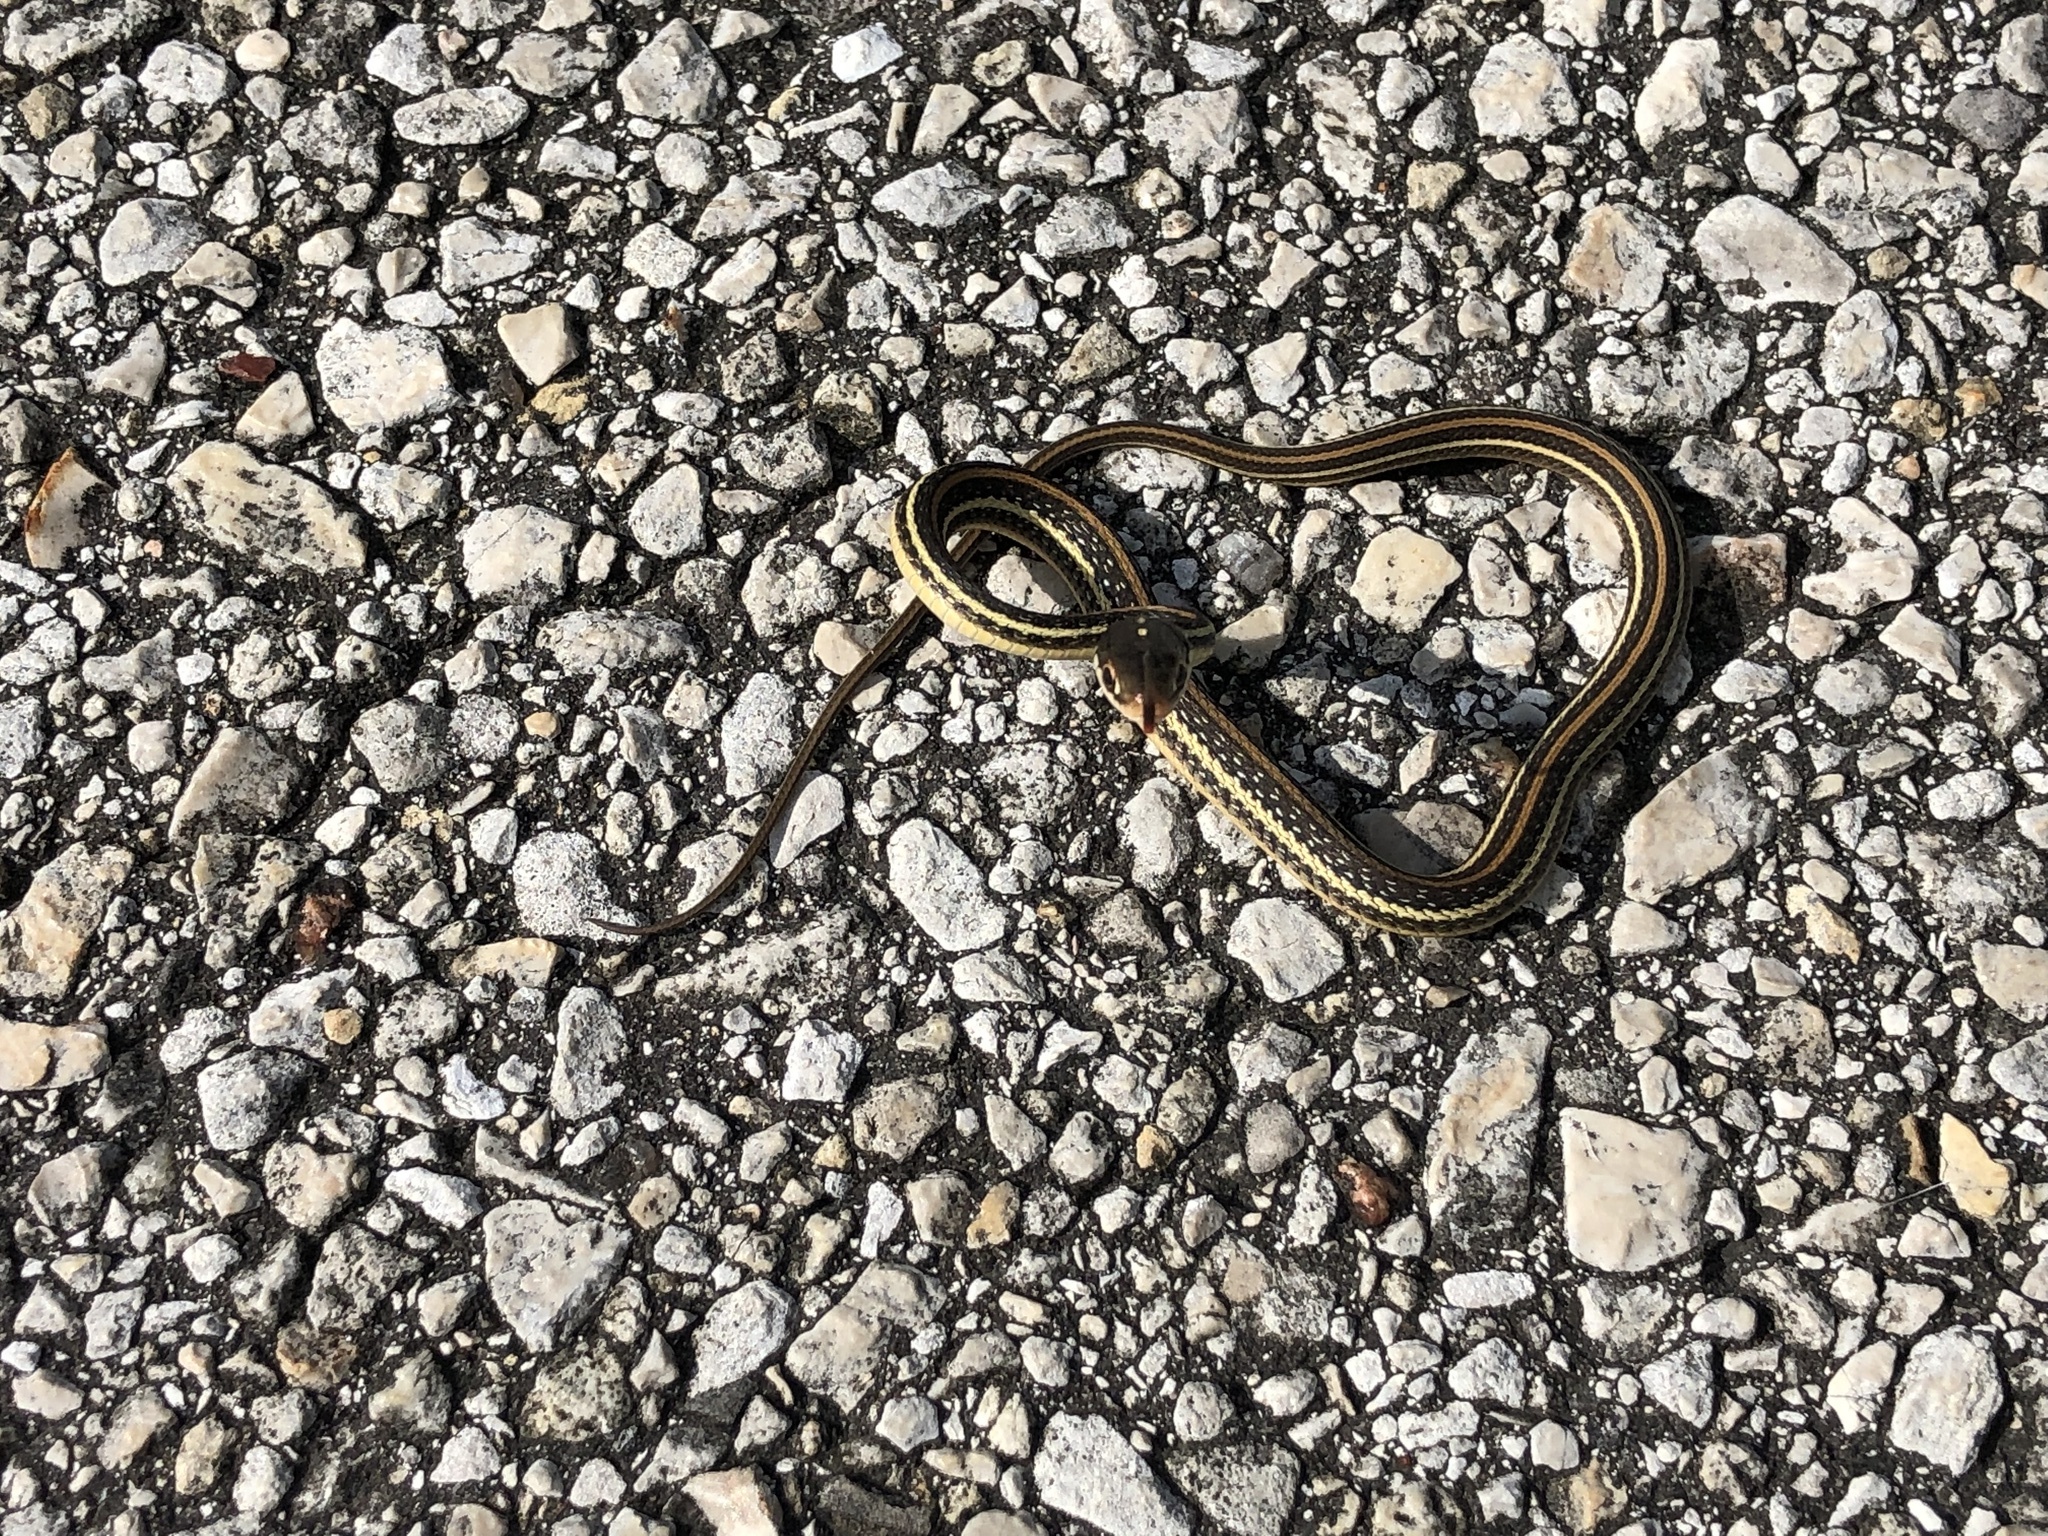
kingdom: Animalia
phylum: Chordata
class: Squamata
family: Colubridae
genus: Thamnophis
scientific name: Thamnophis proximus
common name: Western ribbon snake
